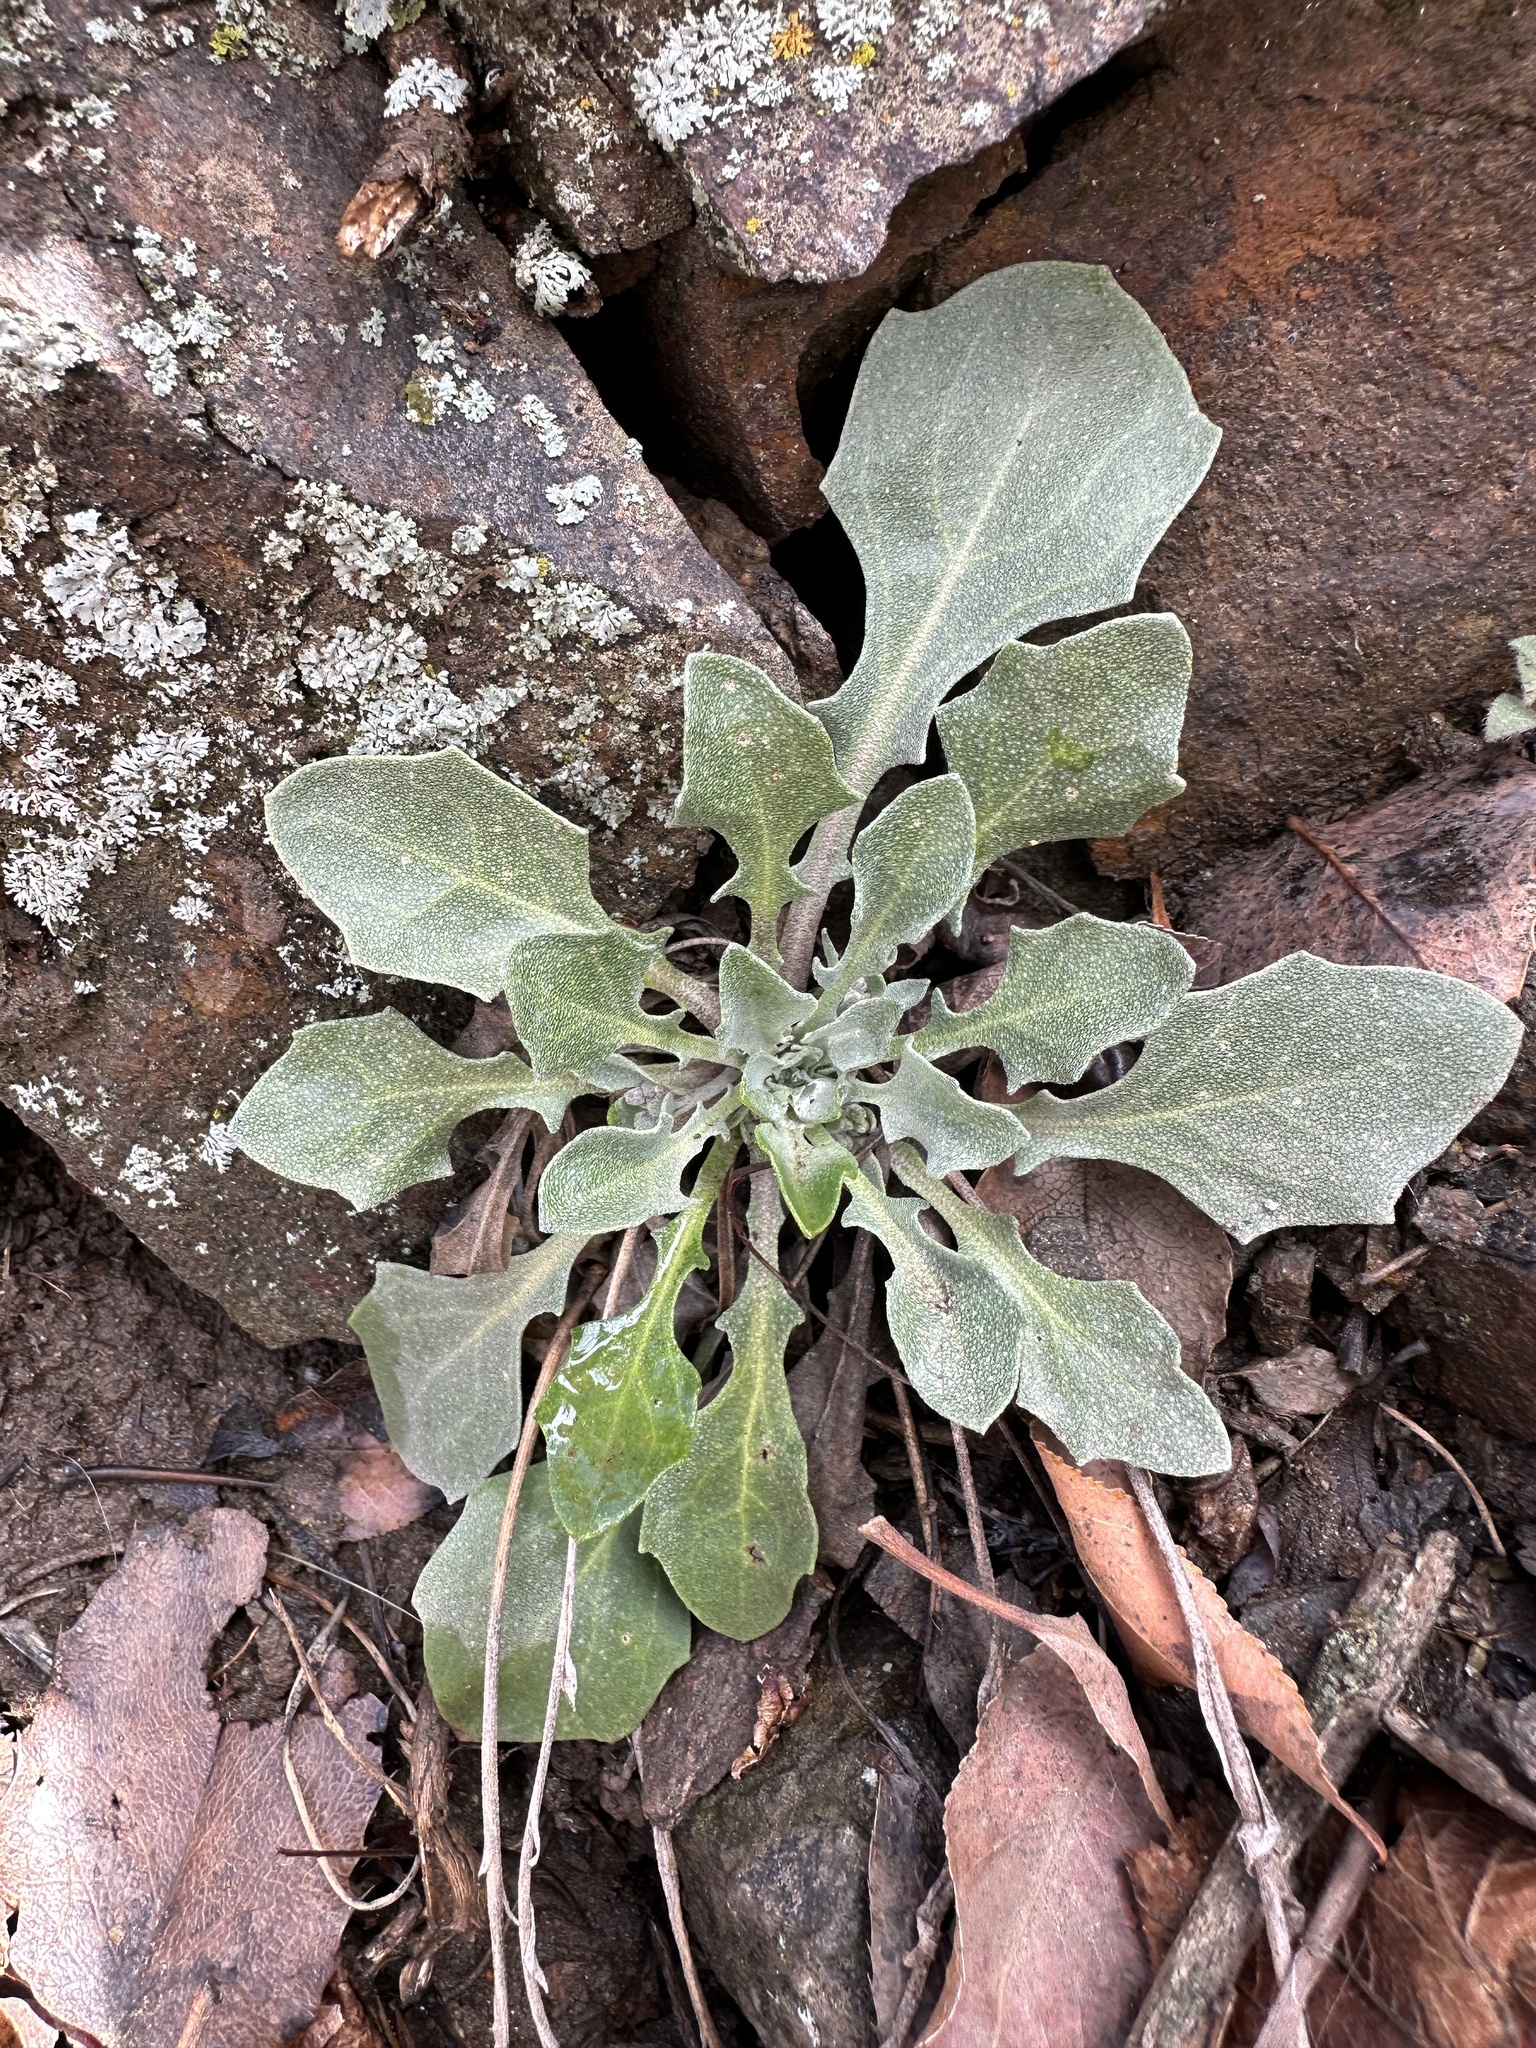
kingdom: Plantae
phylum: Tracheophyta
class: Magnoliopsida
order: Brassicales
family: Brassicaceae
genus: Physaria
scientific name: Physaria vitulifera
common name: Roundtrip twinpod
